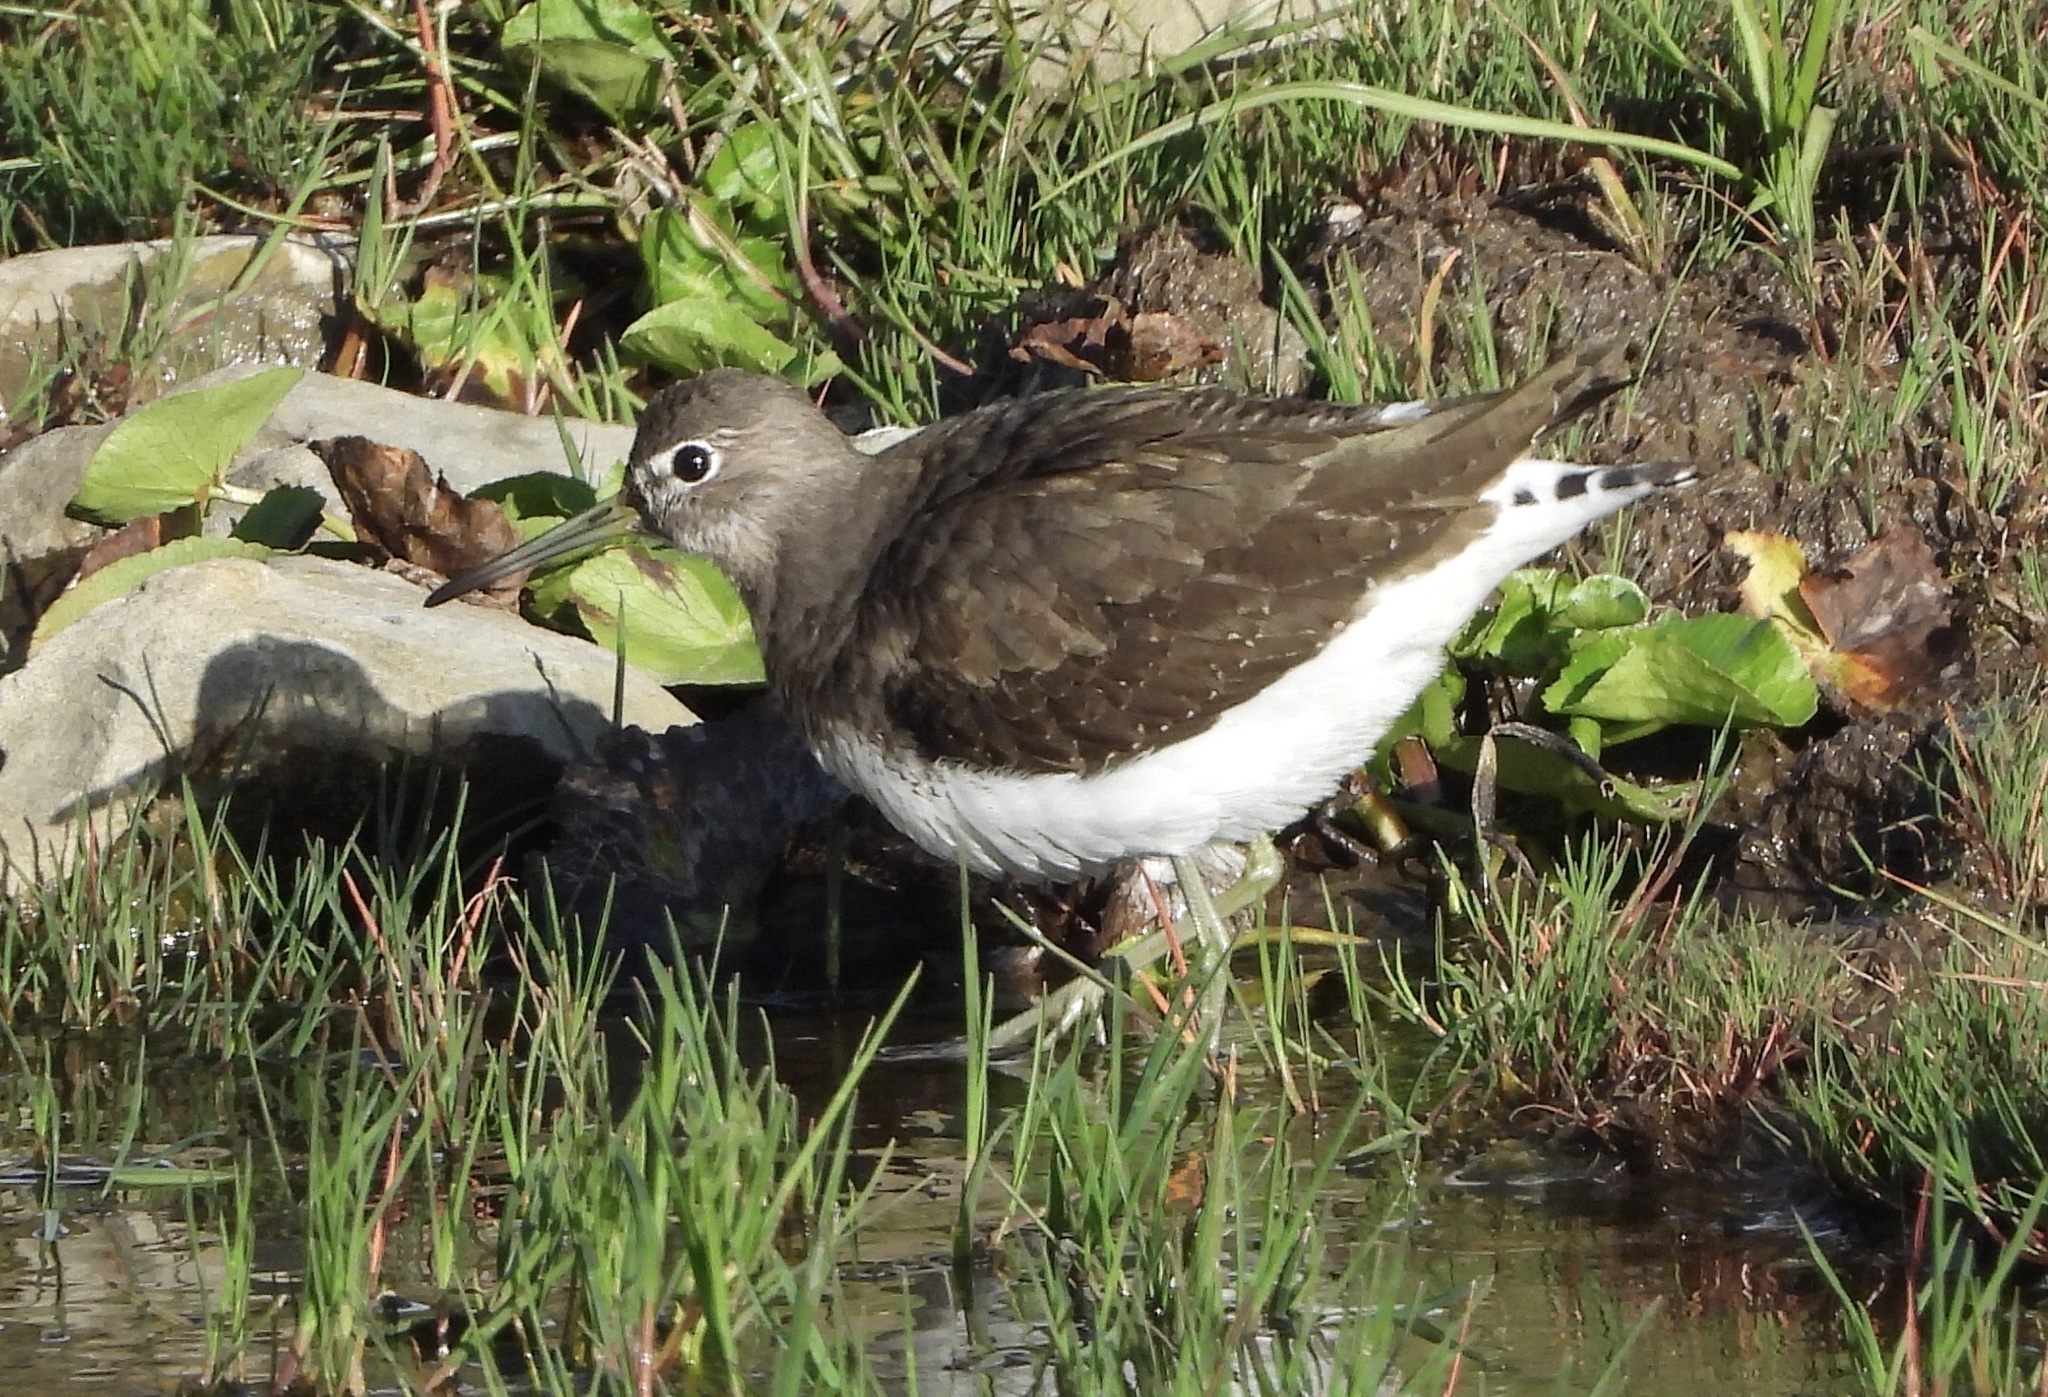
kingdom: Animalia
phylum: Chordata
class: Aves
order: Charadriiformes
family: Scolopacidae
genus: Tringa
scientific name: Tringa ochropus
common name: Green sandpiper
